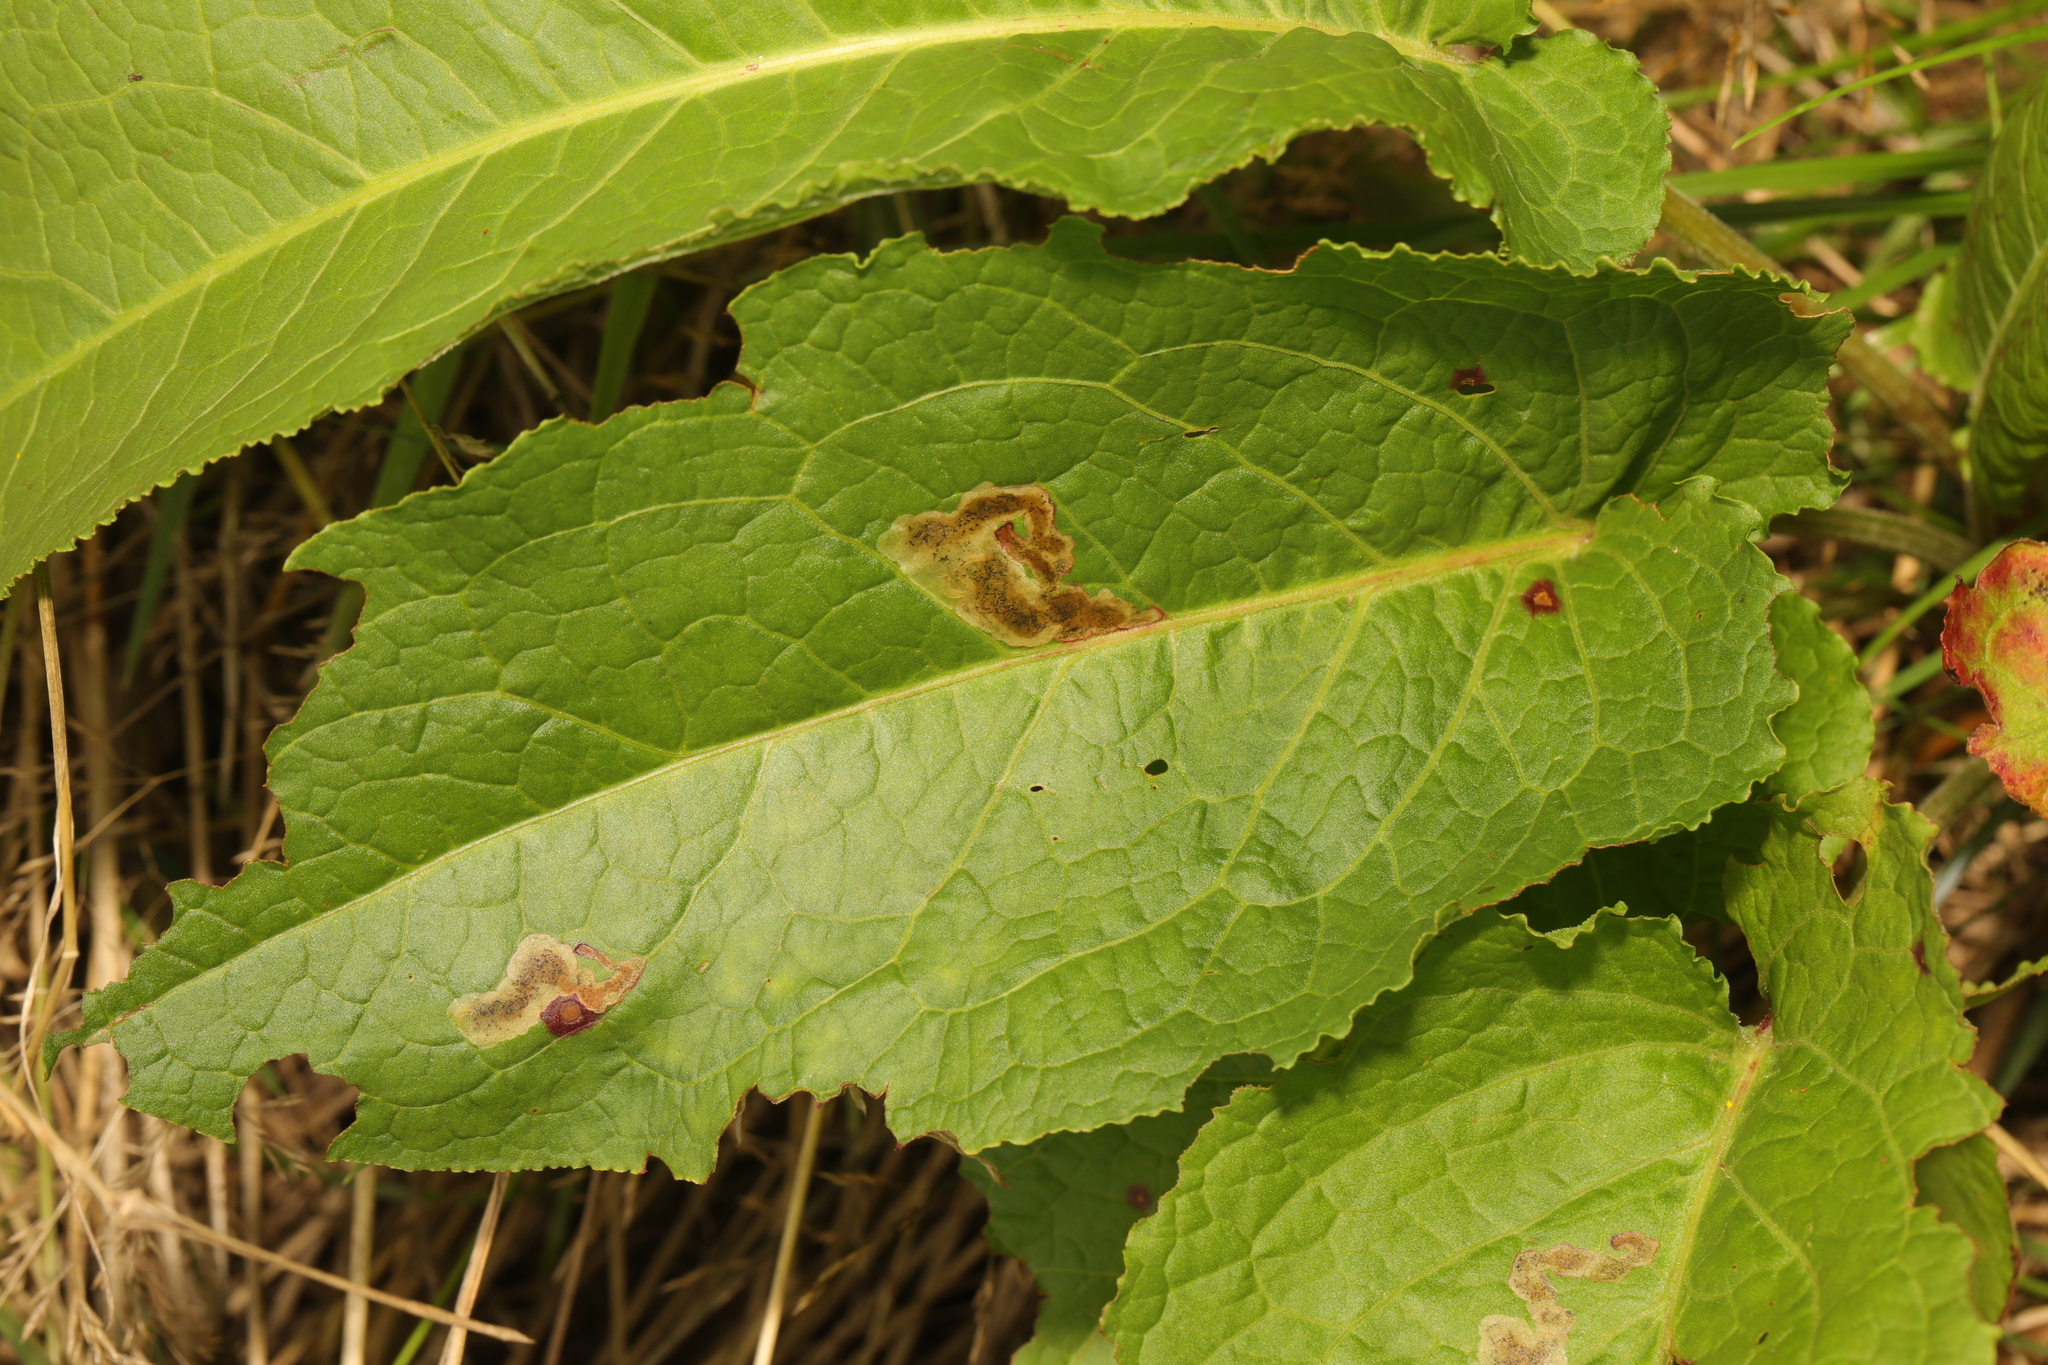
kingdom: Fungi
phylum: Ascomycota
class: Dothideomycetes
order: Mycosphaerellales
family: Mycosphaerellaceae
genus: Ramularia
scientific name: Ramularia rubella
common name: Red dock spot
